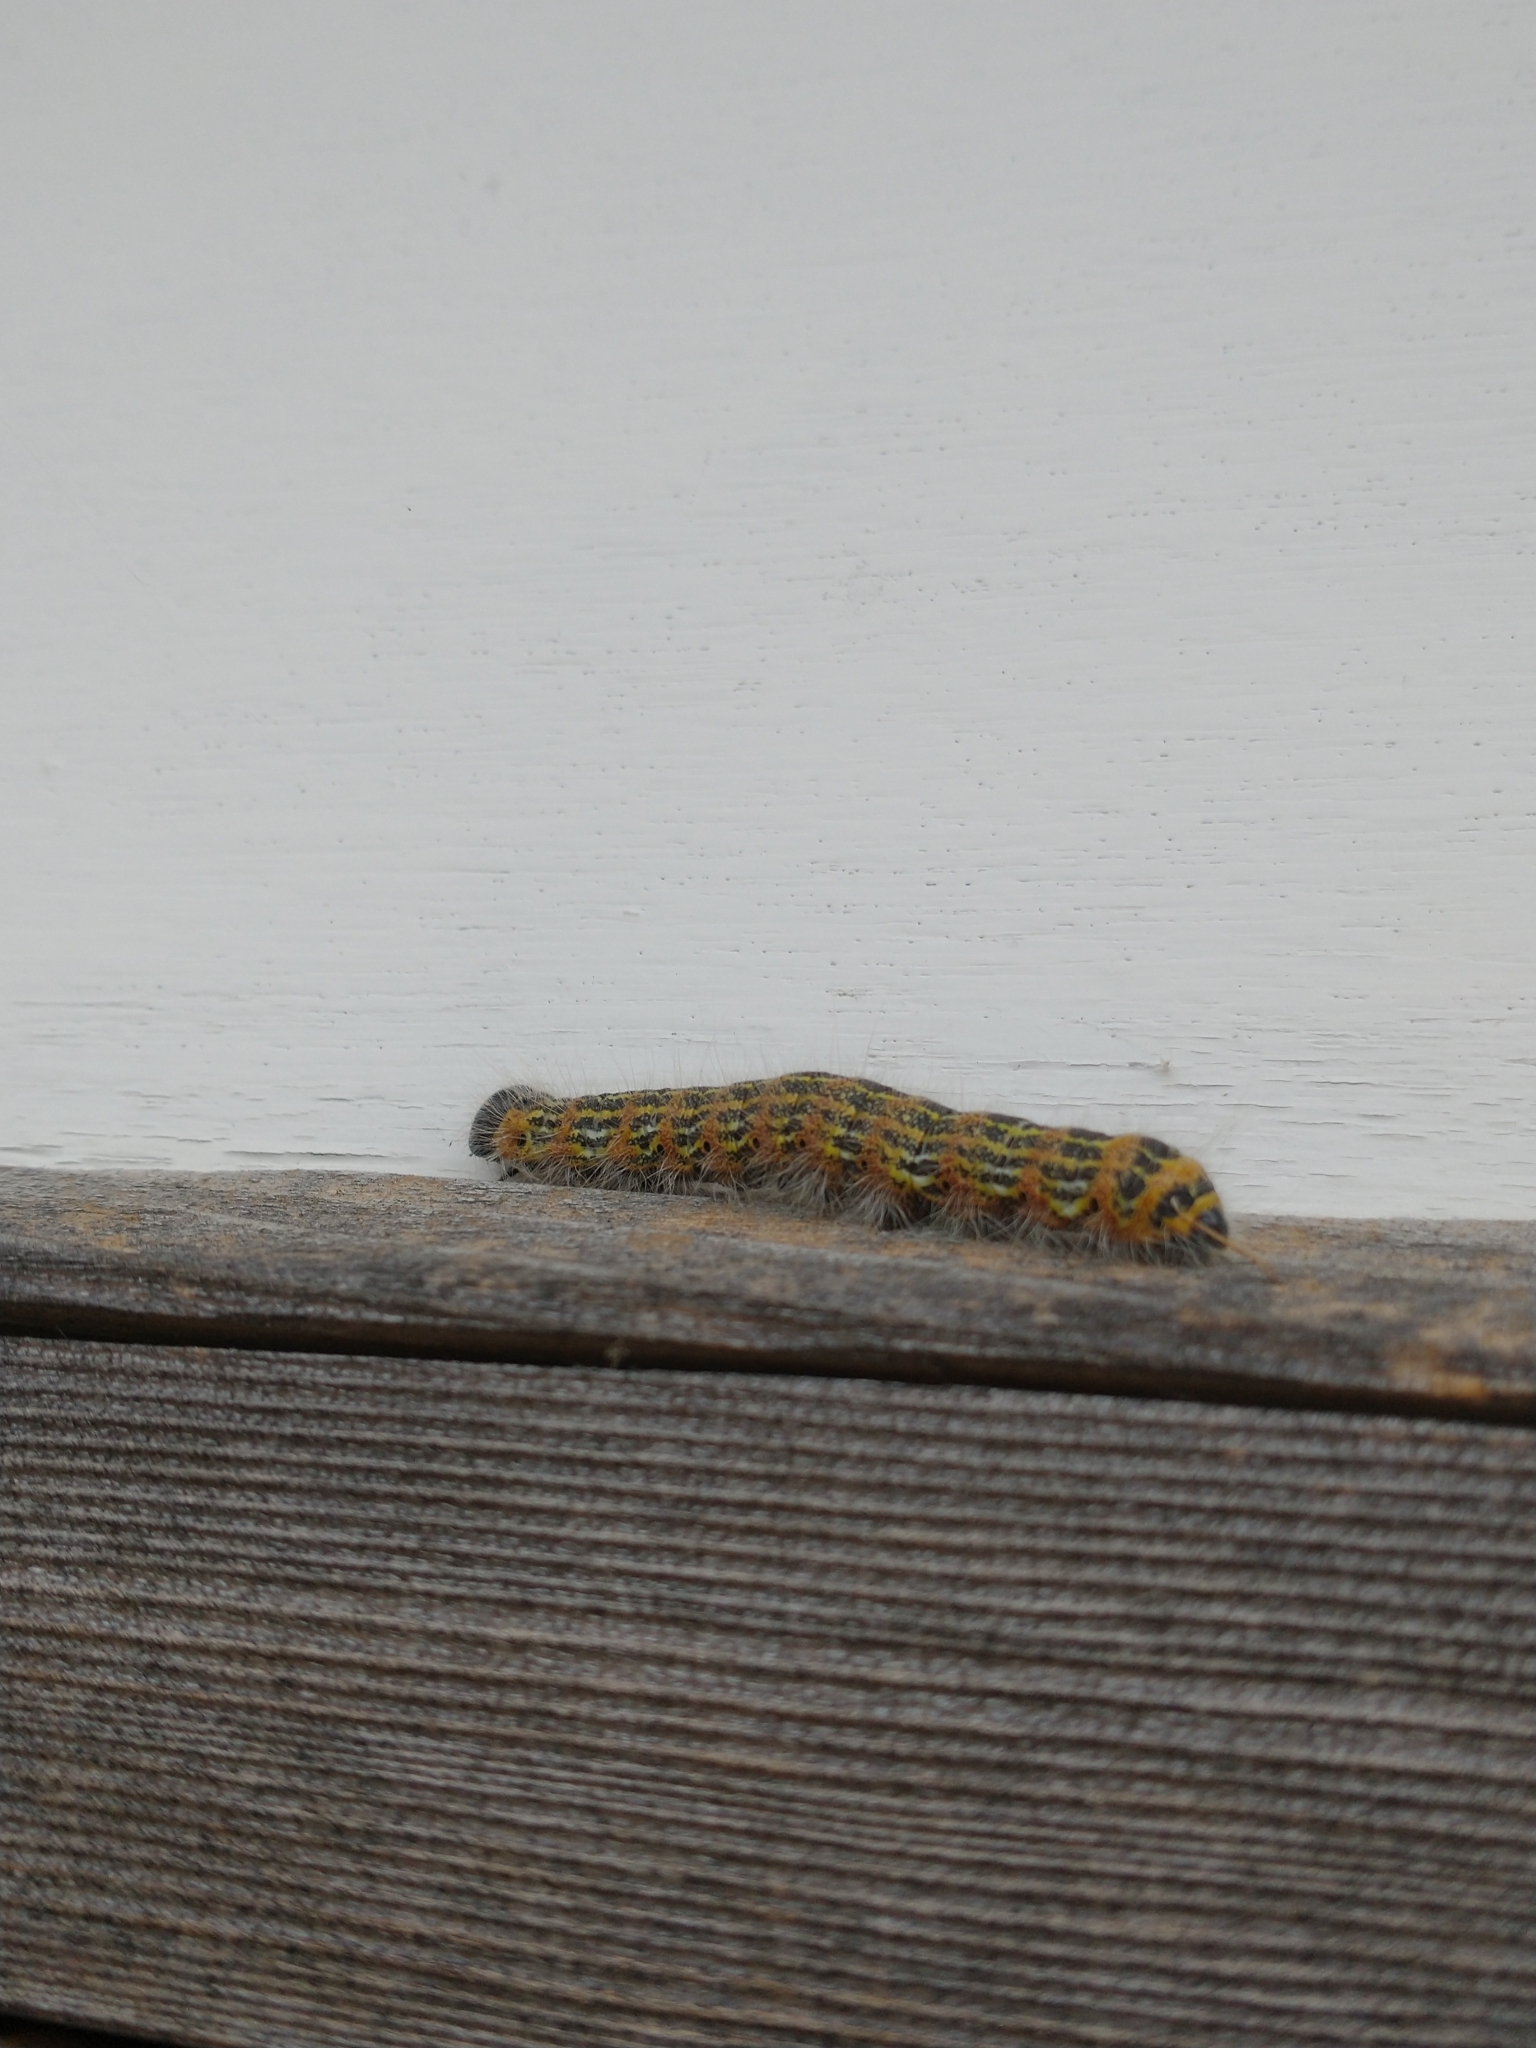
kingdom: Animalia
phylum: Arthropoda
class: Insecta
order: Lepidoptera
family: Notodontidae
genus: Phalera
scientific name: Phalera bucephala
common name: Buff-tip
